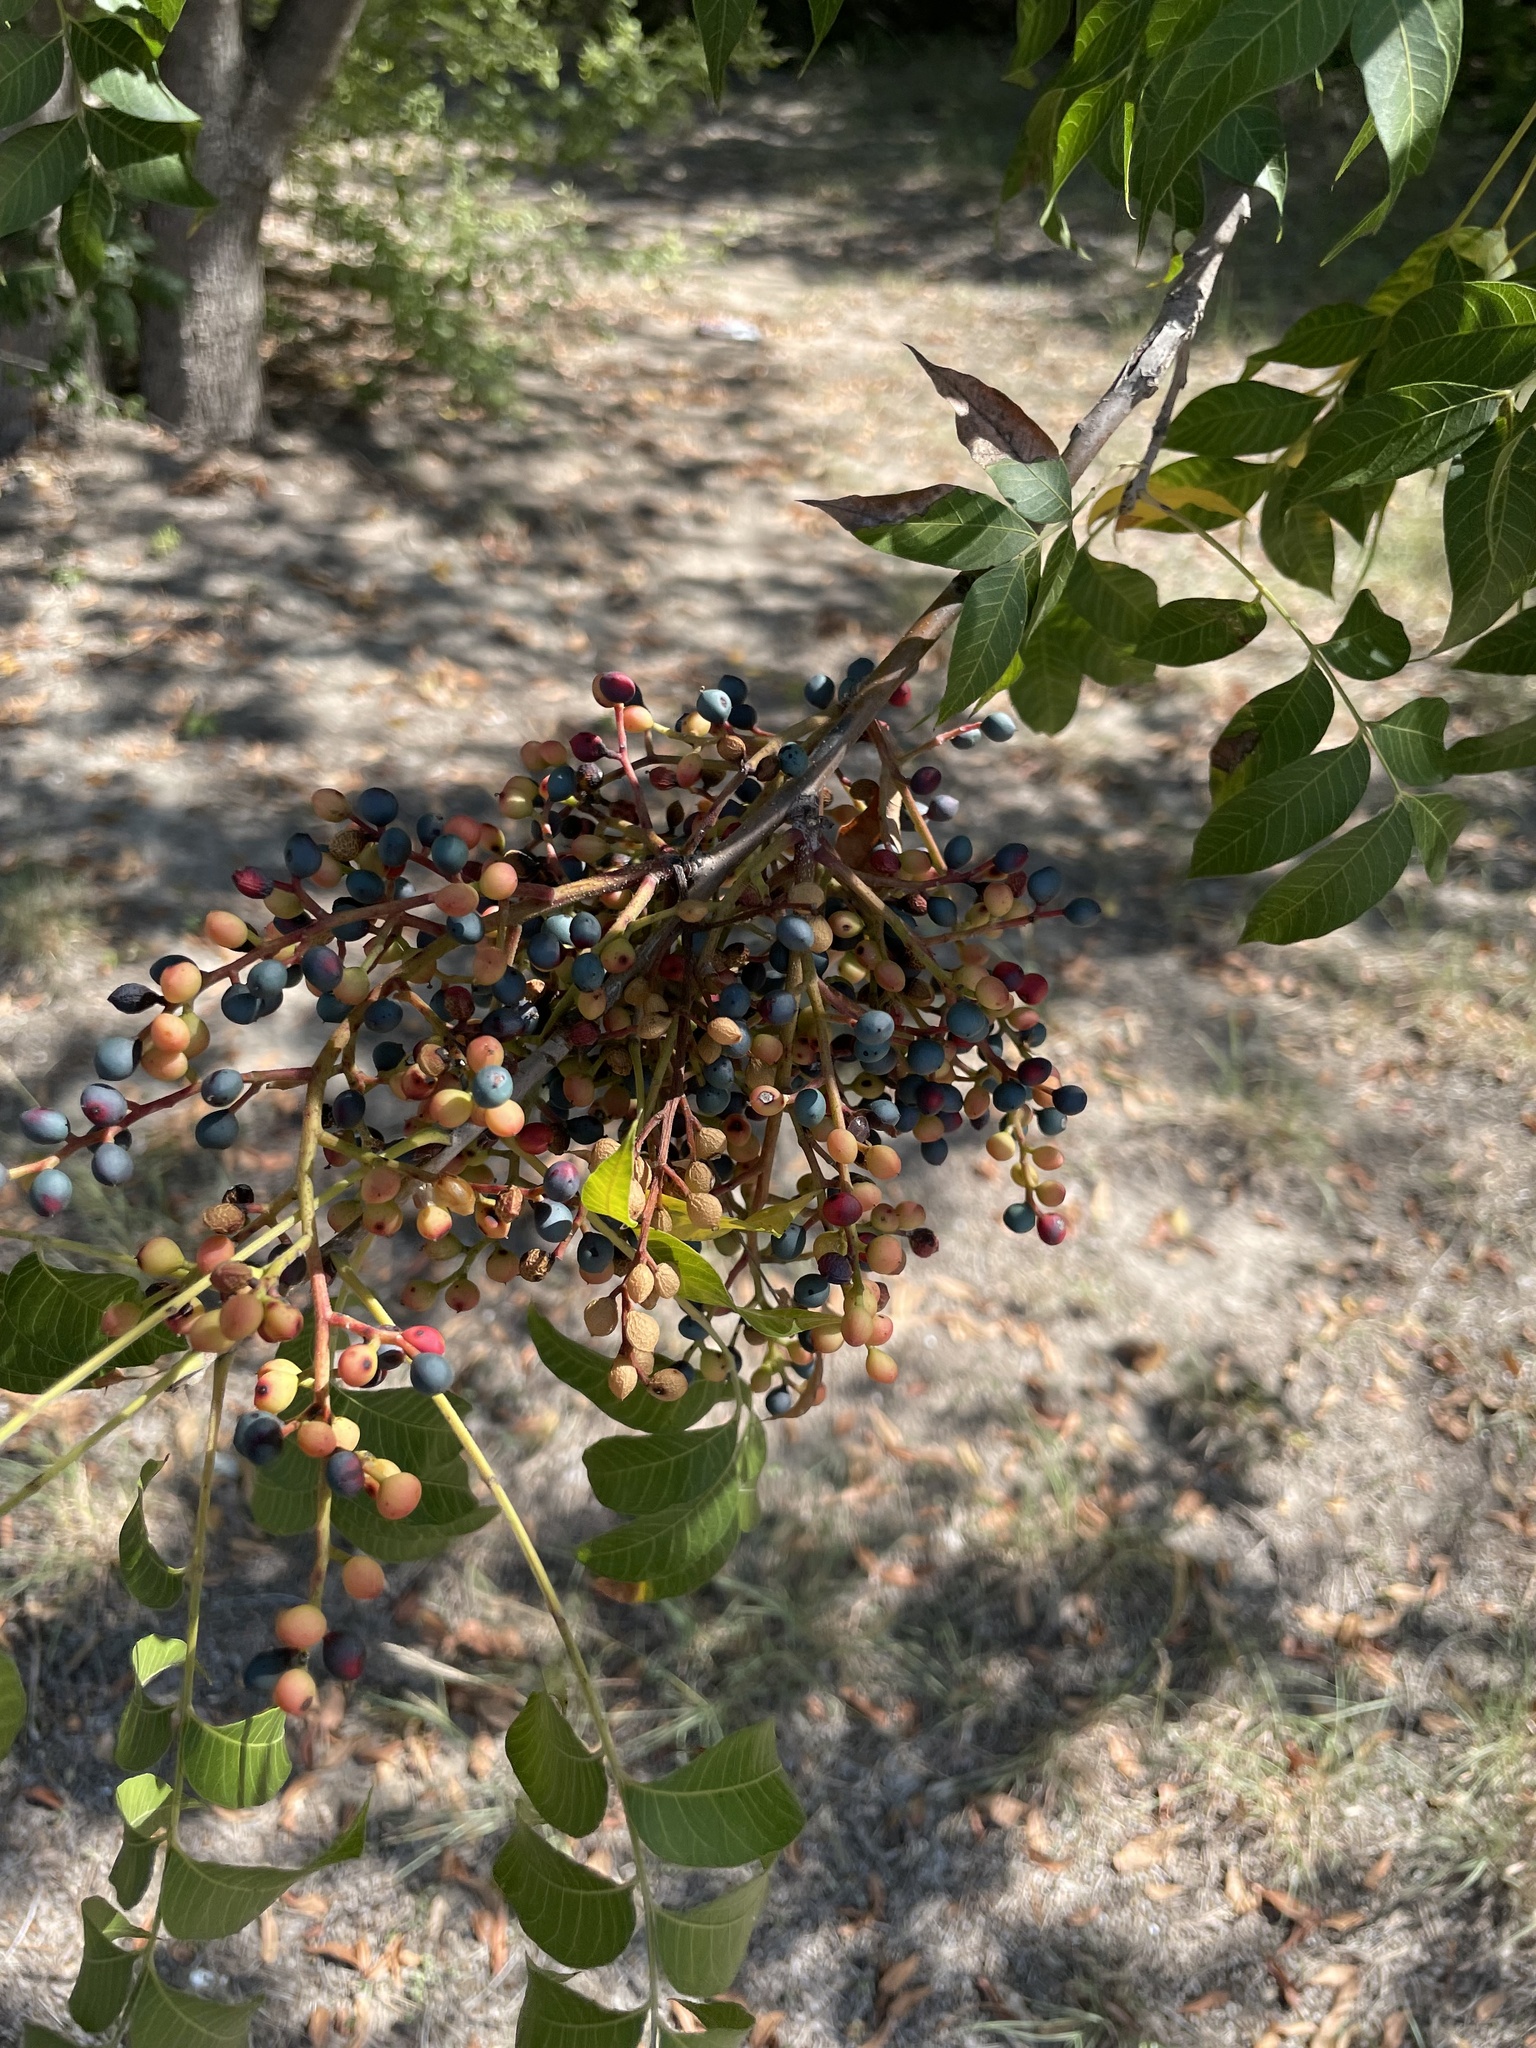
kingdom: Plantae
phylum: Tracheophyta
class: Magnoliopsida
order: Sapindales
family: Anacardiaceae
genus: Pistacia
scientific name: Pistacia chinensis
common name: Chinese pistache
